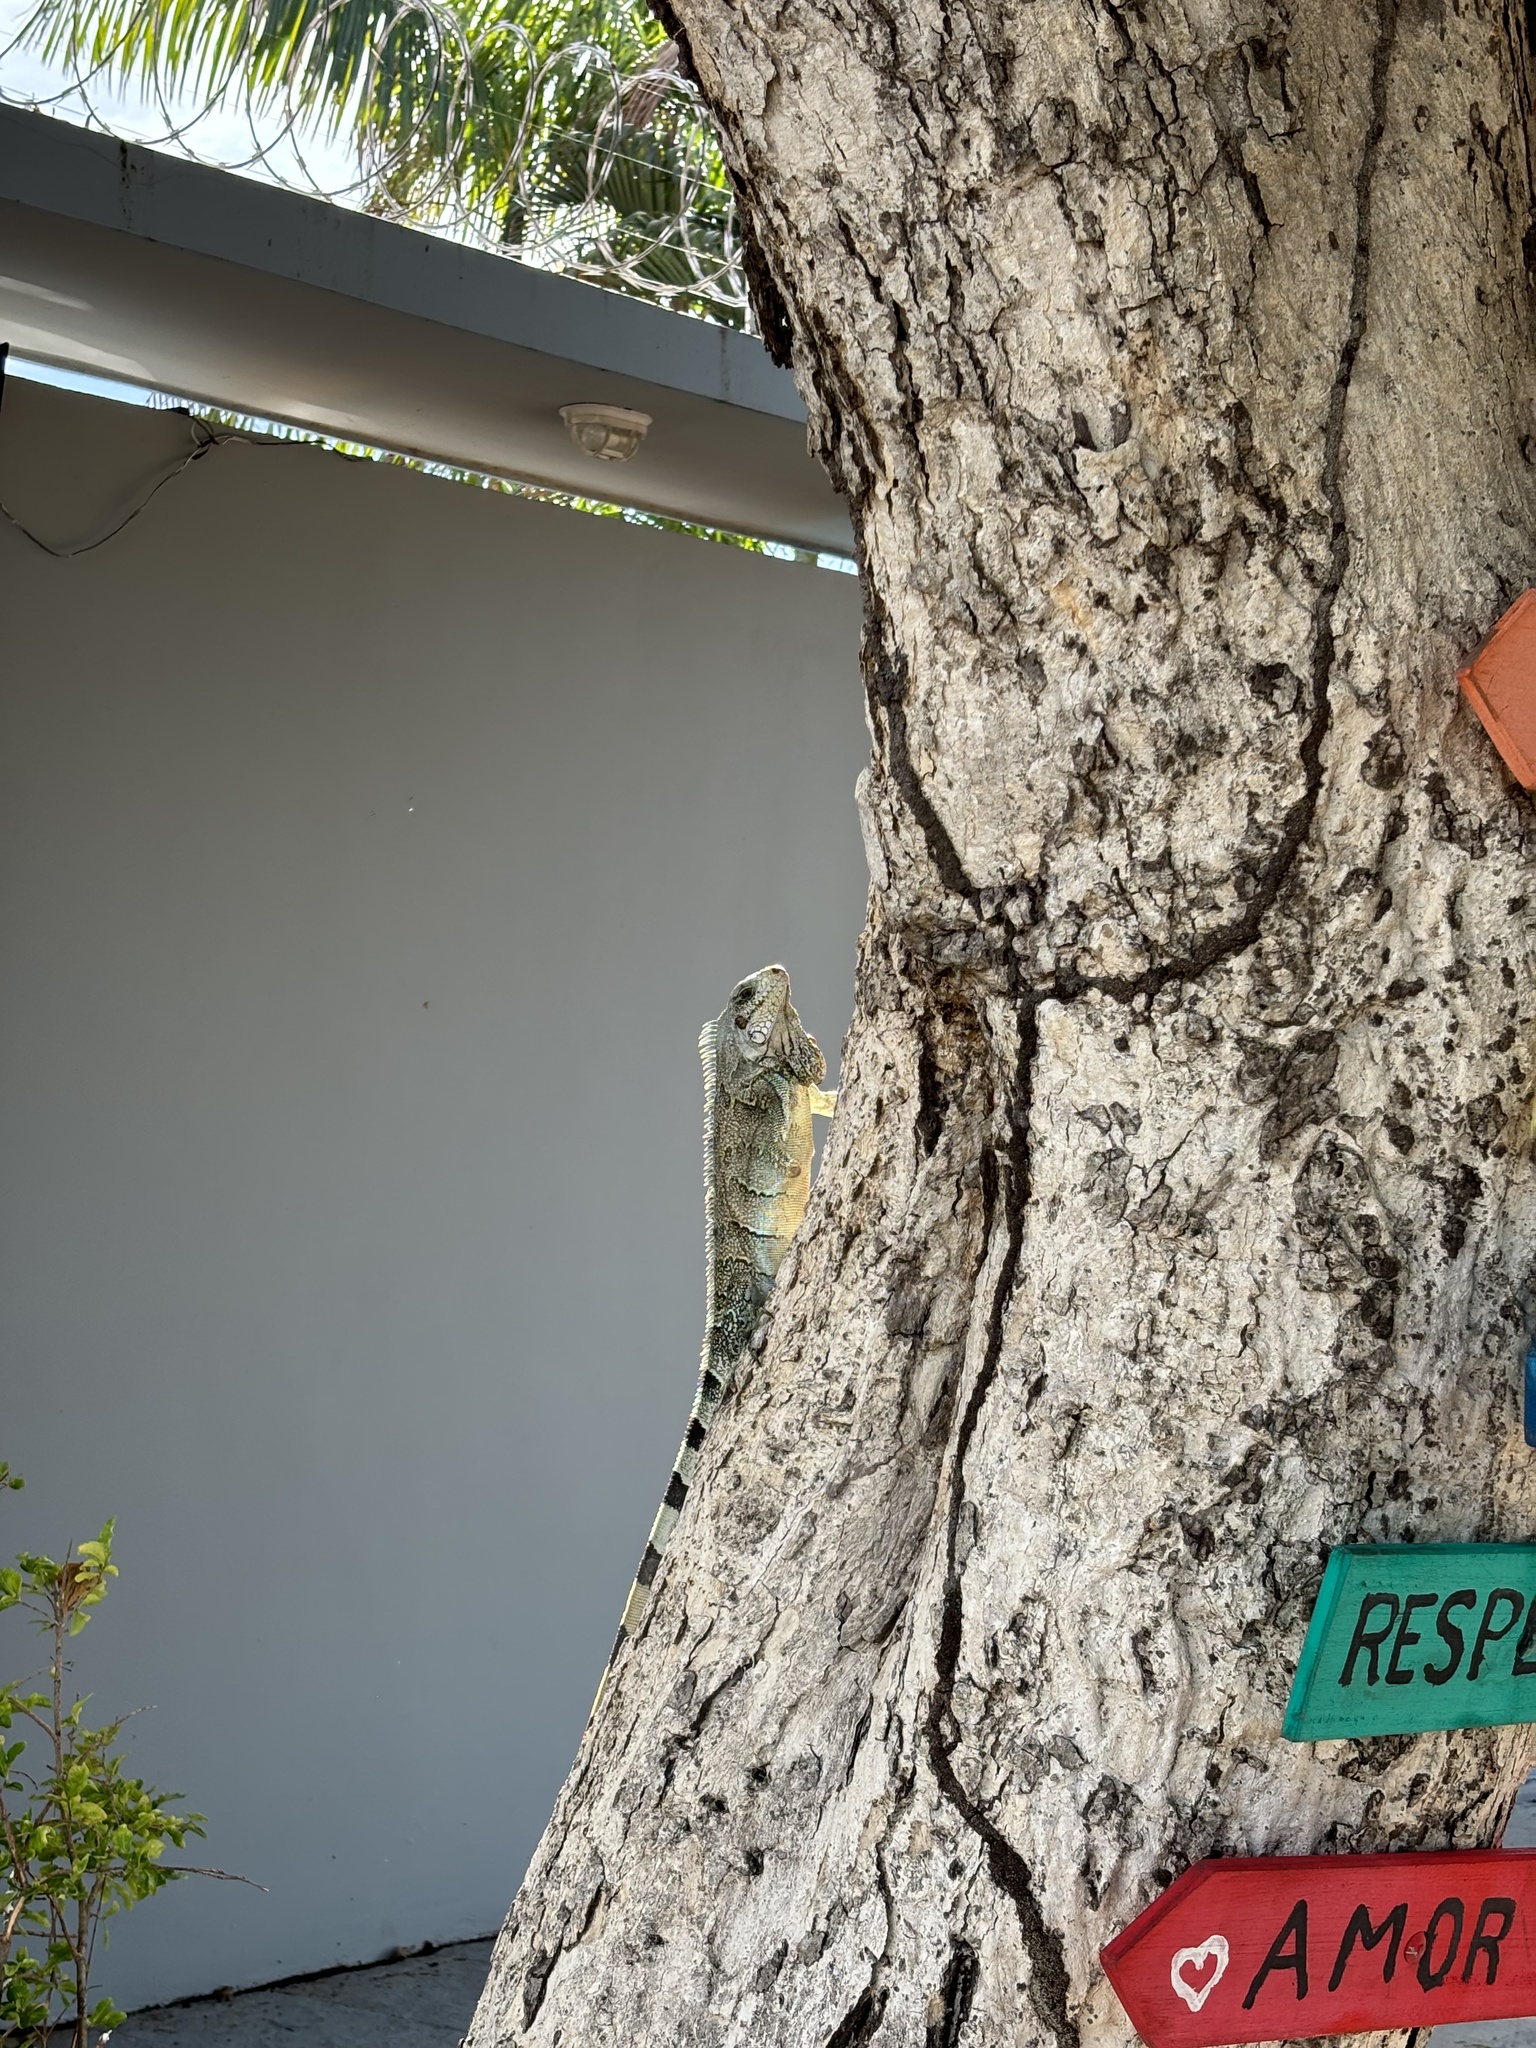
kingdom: Animalia
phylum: Chordata
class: Squamata
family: Iguanidae
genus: Iguana
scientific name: Iguana iguana
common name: Green iguana
